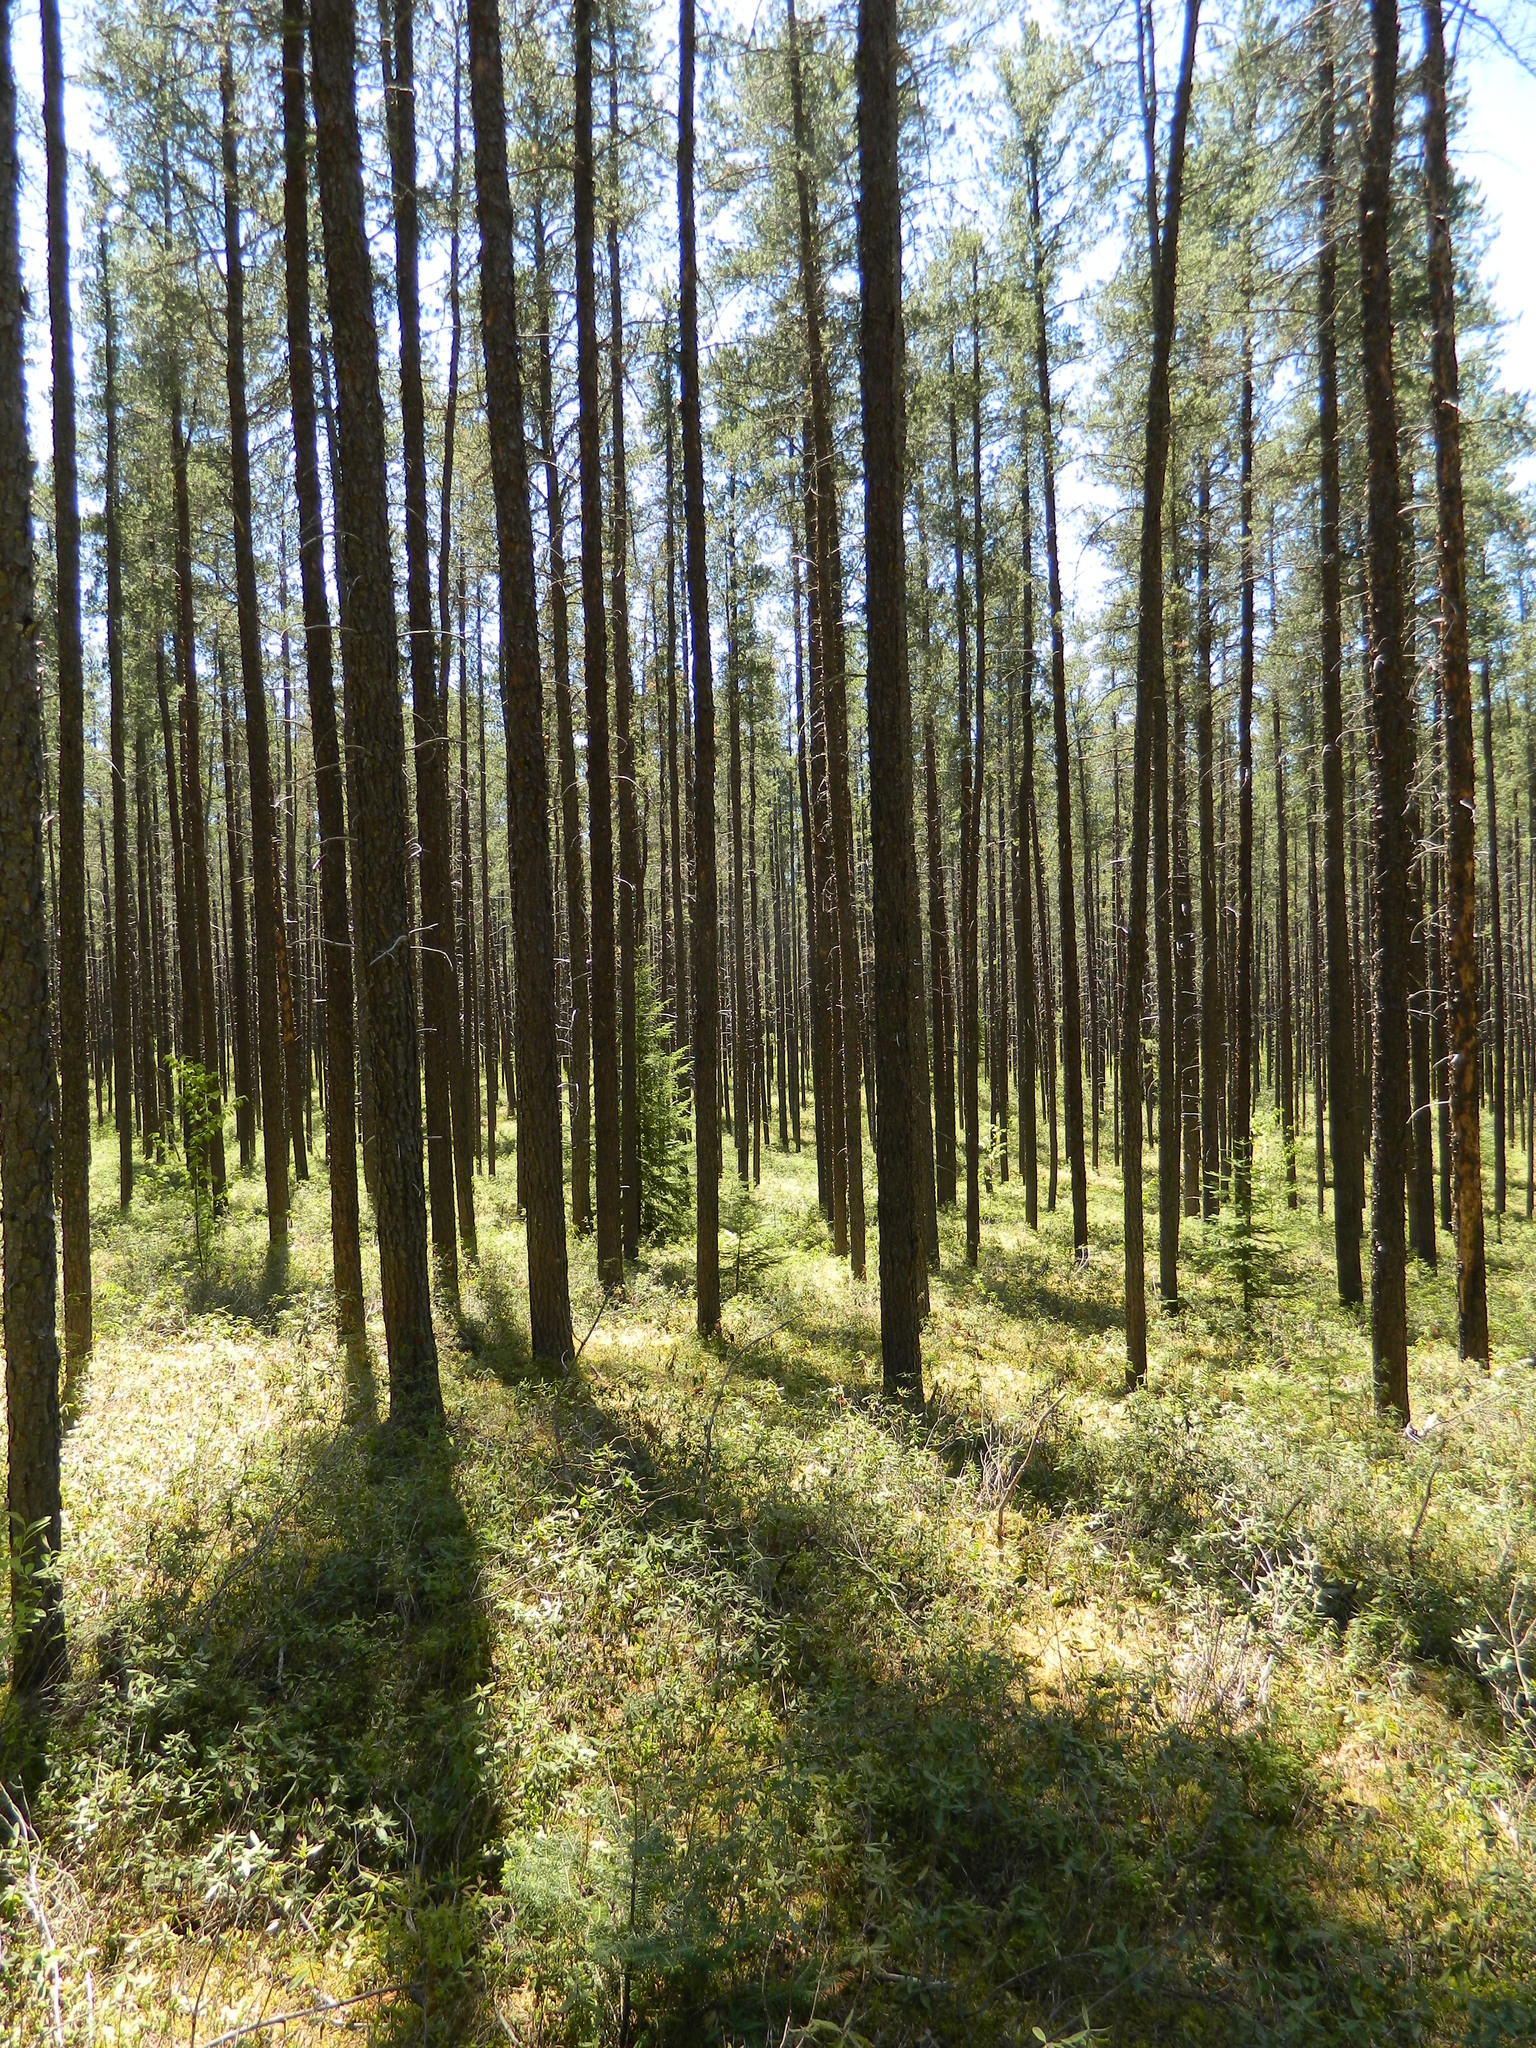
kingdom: Plantae
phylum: Tracheophyta
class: Pinopsida
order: Pinales
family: Pinaceae
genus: Pinus
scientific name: Pinus banksiana
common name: Jack pine
